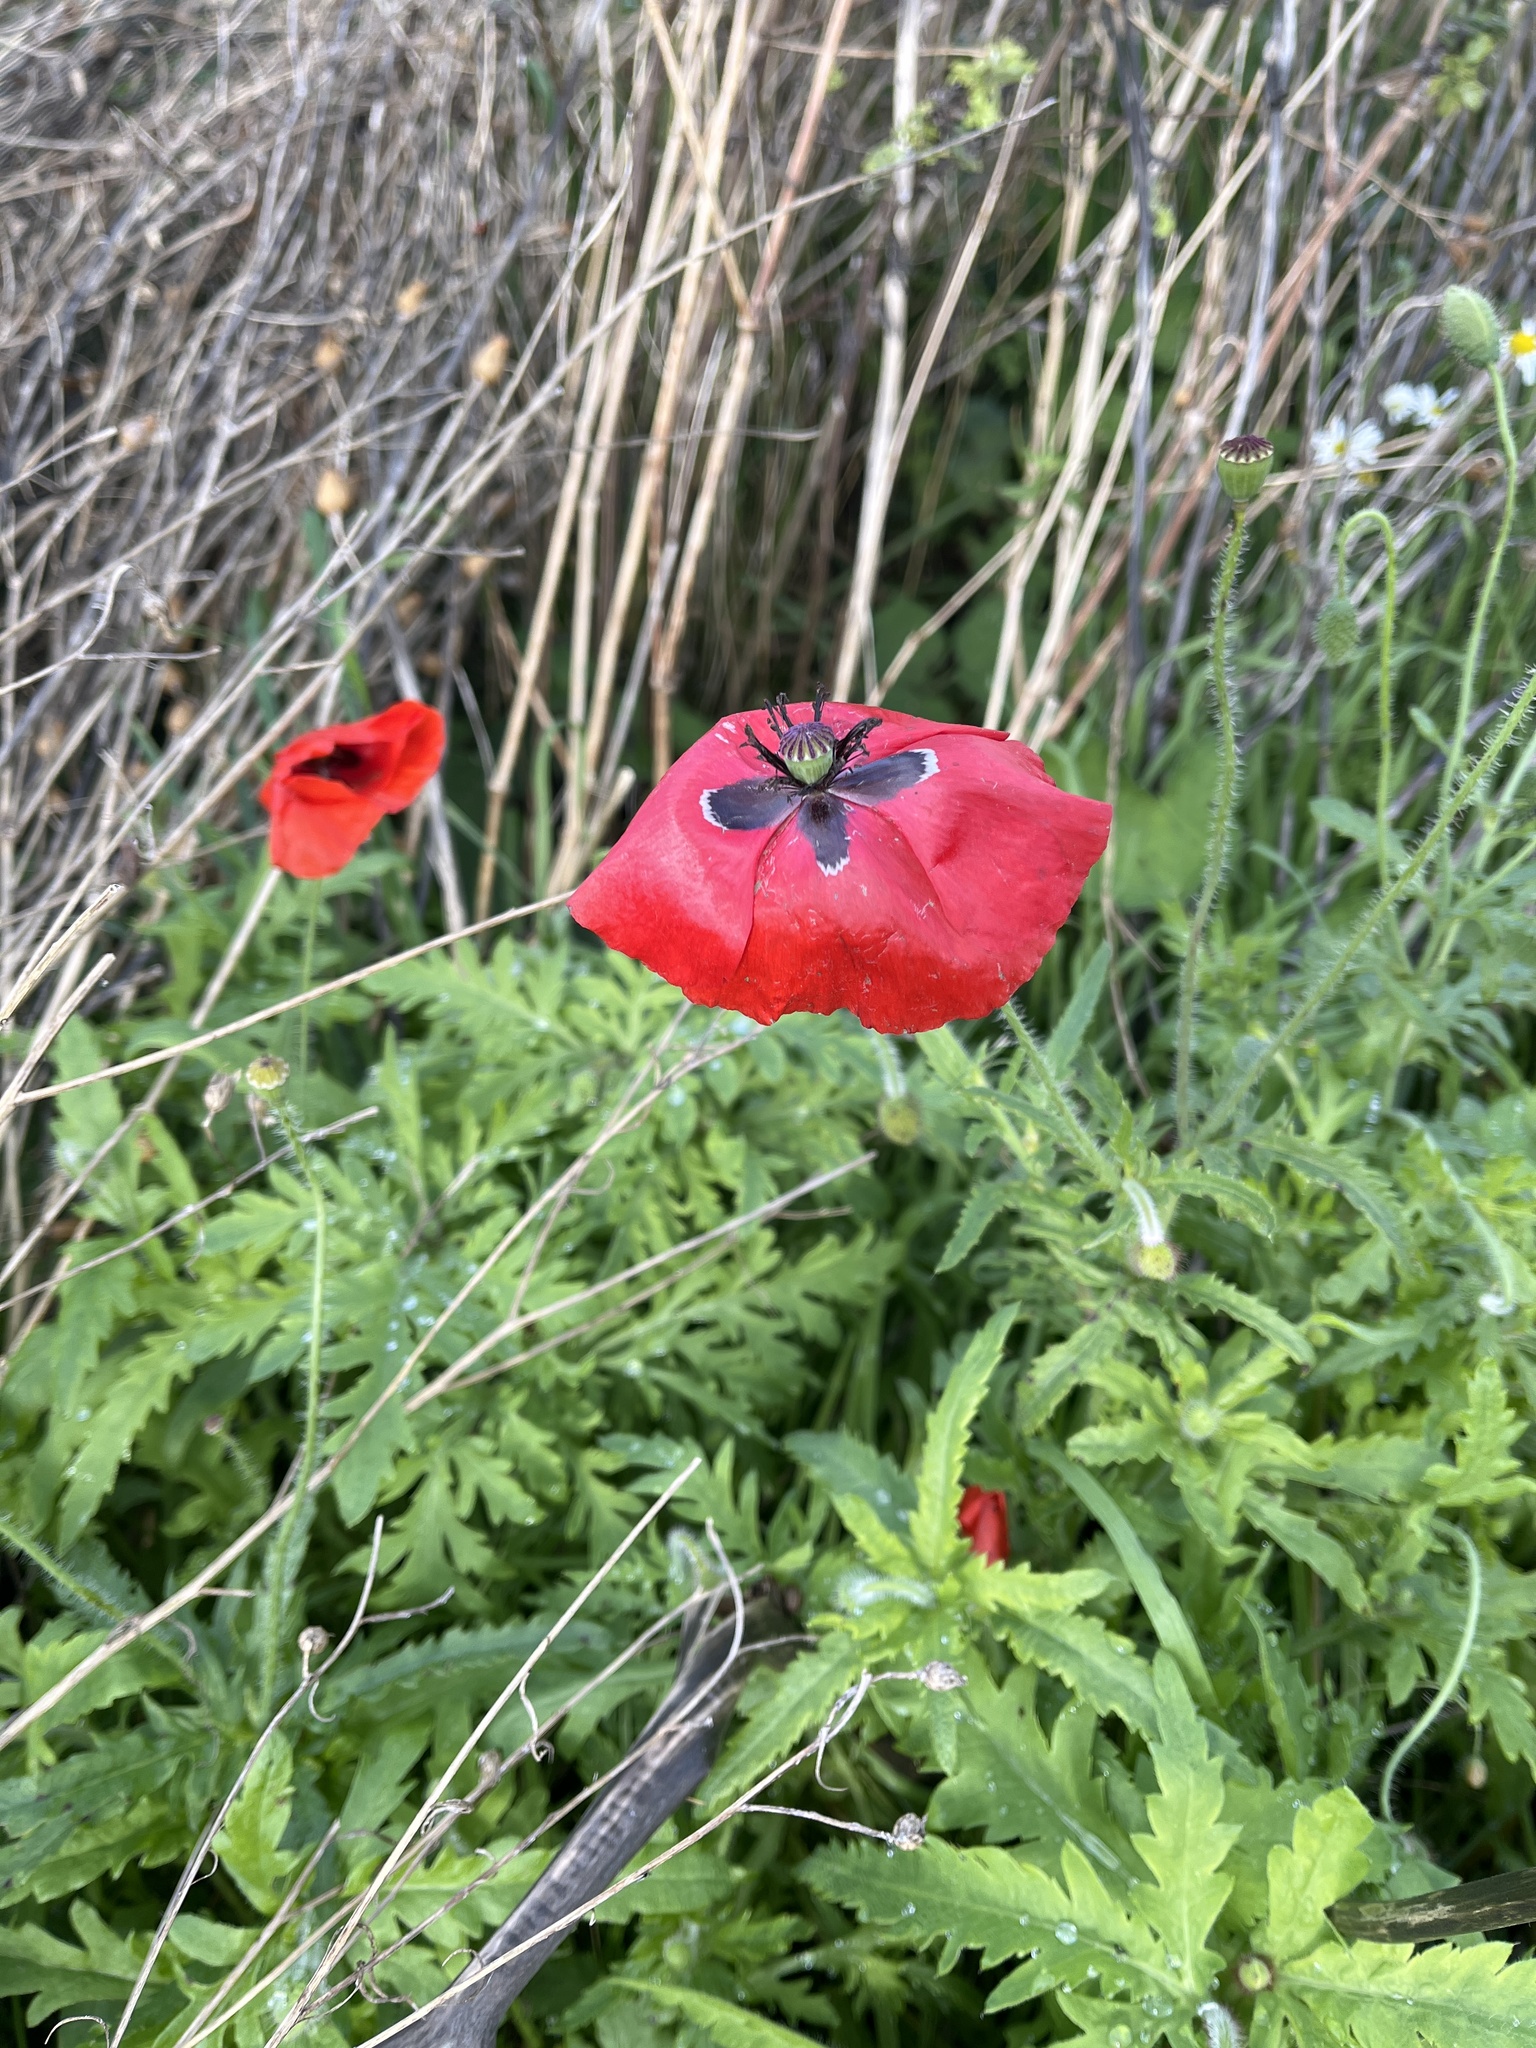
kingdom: Plantae
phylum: Tracheophyta
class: Magnoliopsida
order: Ranunculales
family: Papaveraceae
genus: Papaver
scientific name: Papaver rhoeas
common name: Corn poppy
